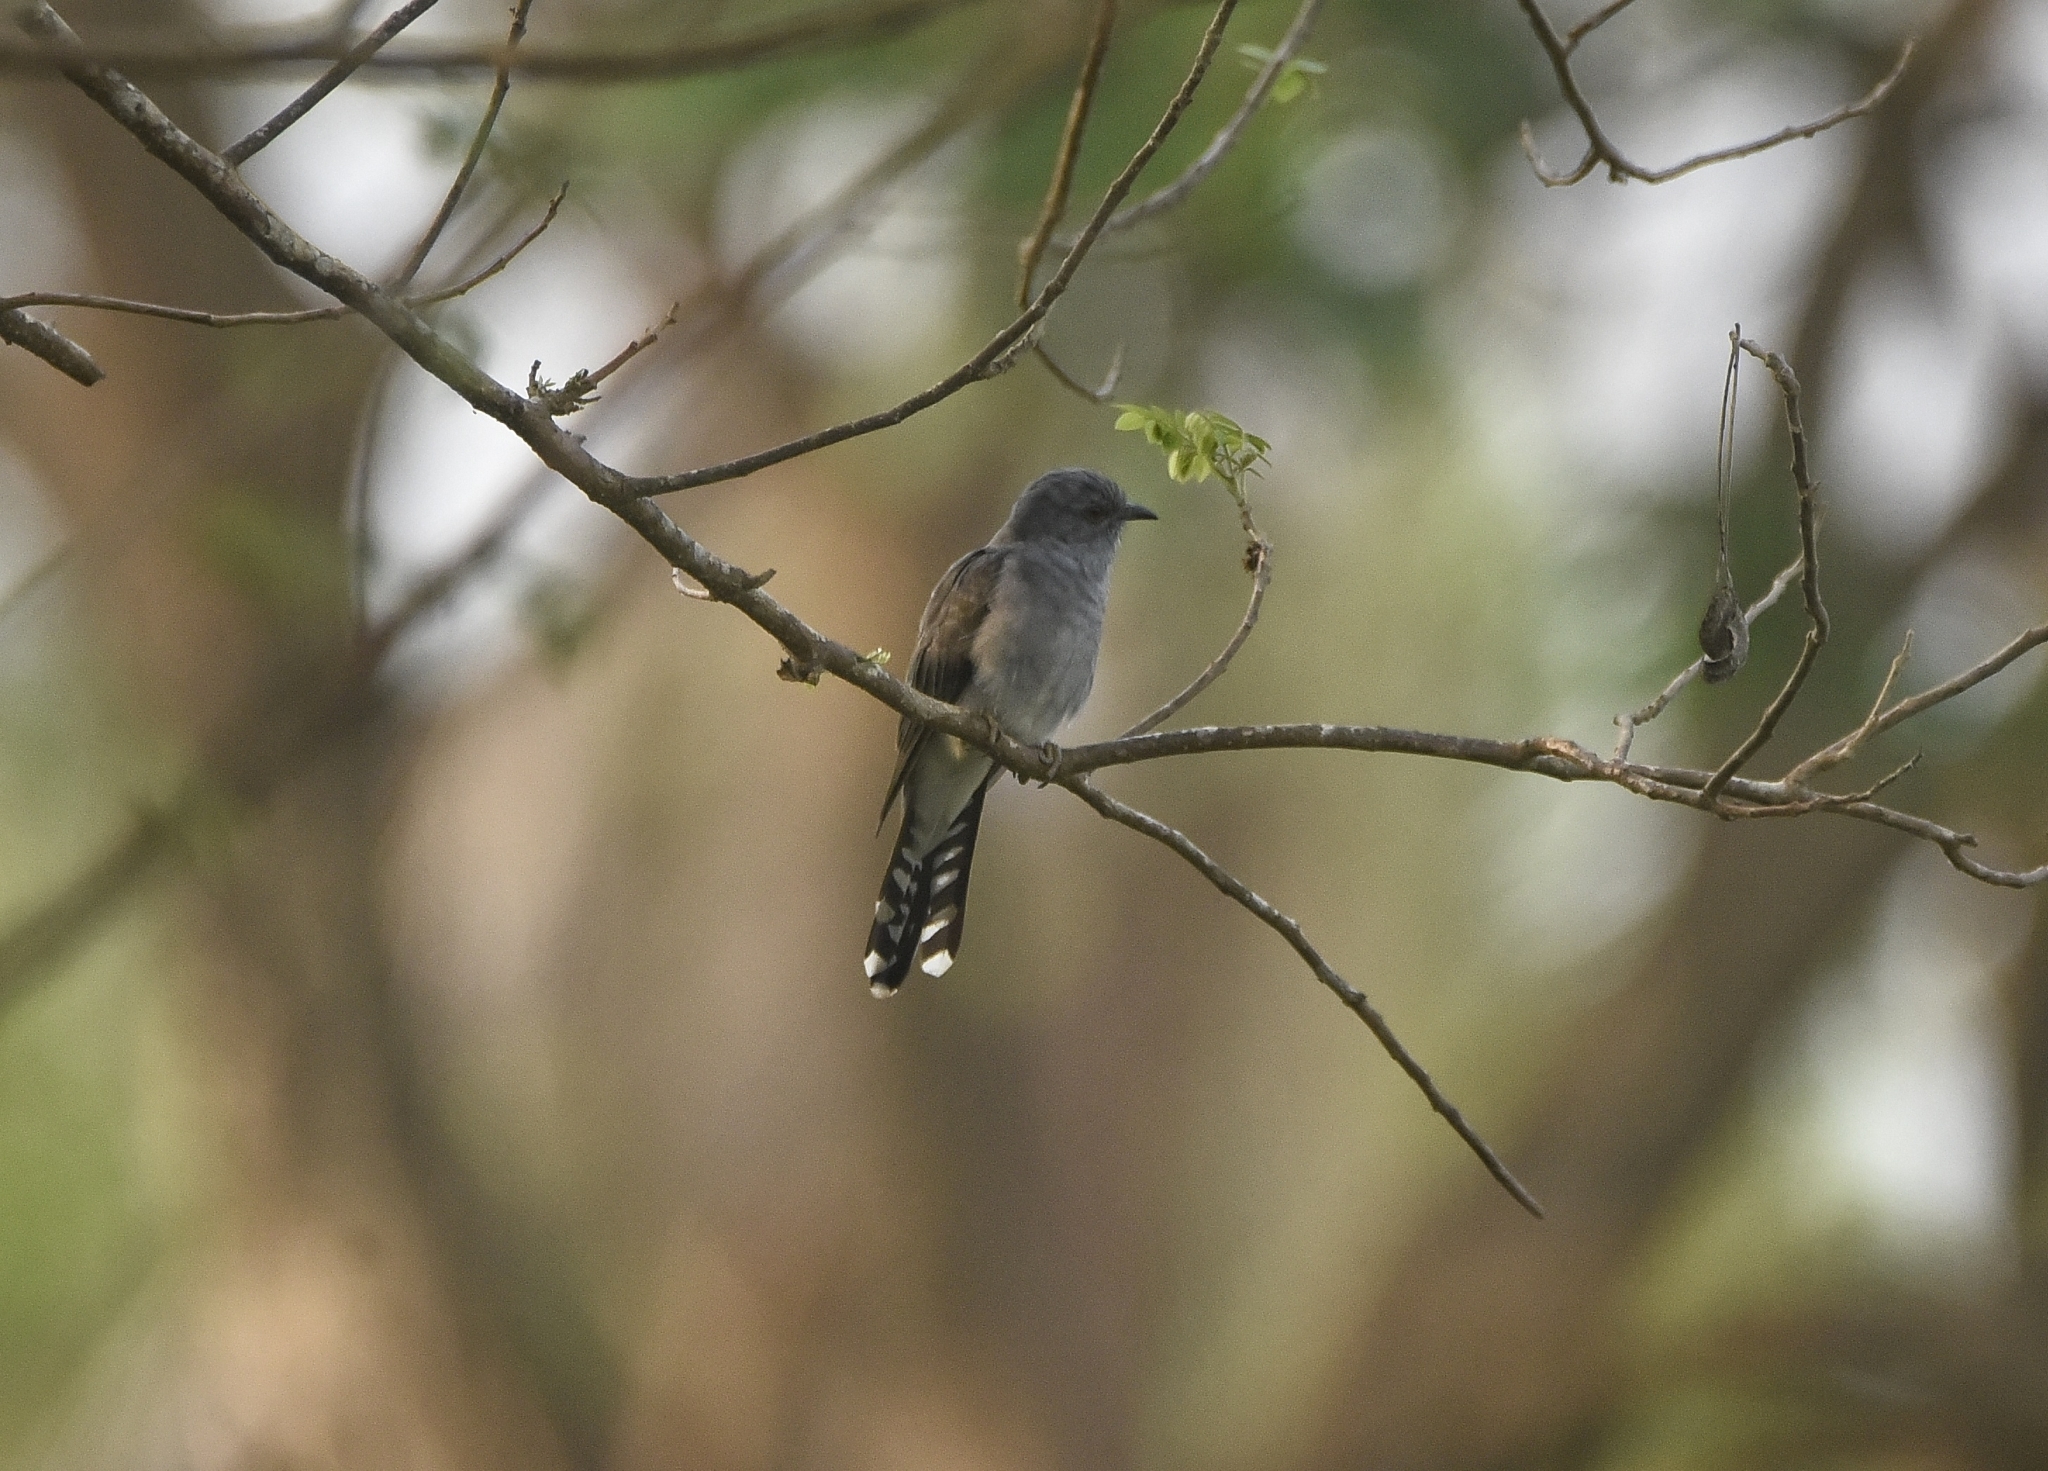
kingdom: Animalia
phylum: Chordata
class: Aves
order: Cuculiformes
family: Cuculidae
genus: Cacomantis
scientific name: Cacomantis passerinus
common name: Grey-bellied cuckoo
